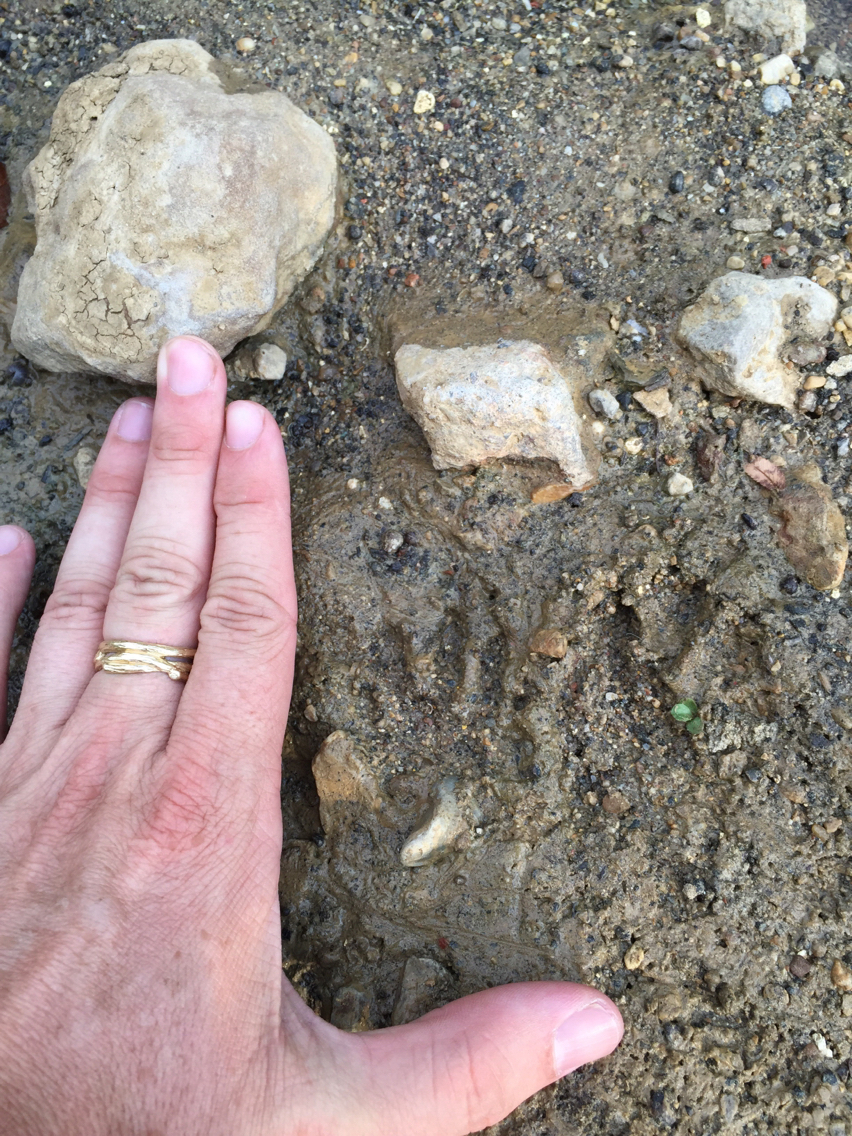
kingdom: Animalia
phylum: Chordata
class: Mammalia
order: Carnivora
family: Procyonidae
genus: Procyon
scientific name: Procyon lotor
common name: Raccoon
